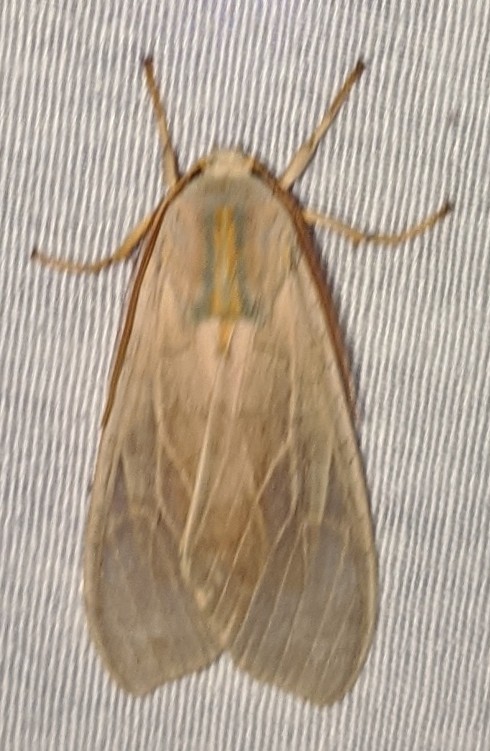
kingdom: Animalia
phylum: Arthropoda
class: Insecta
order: Lepidoptera
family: Erebidae
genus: Halysidota
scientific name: Halysidota tessellaris
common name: Banded tussock moth
